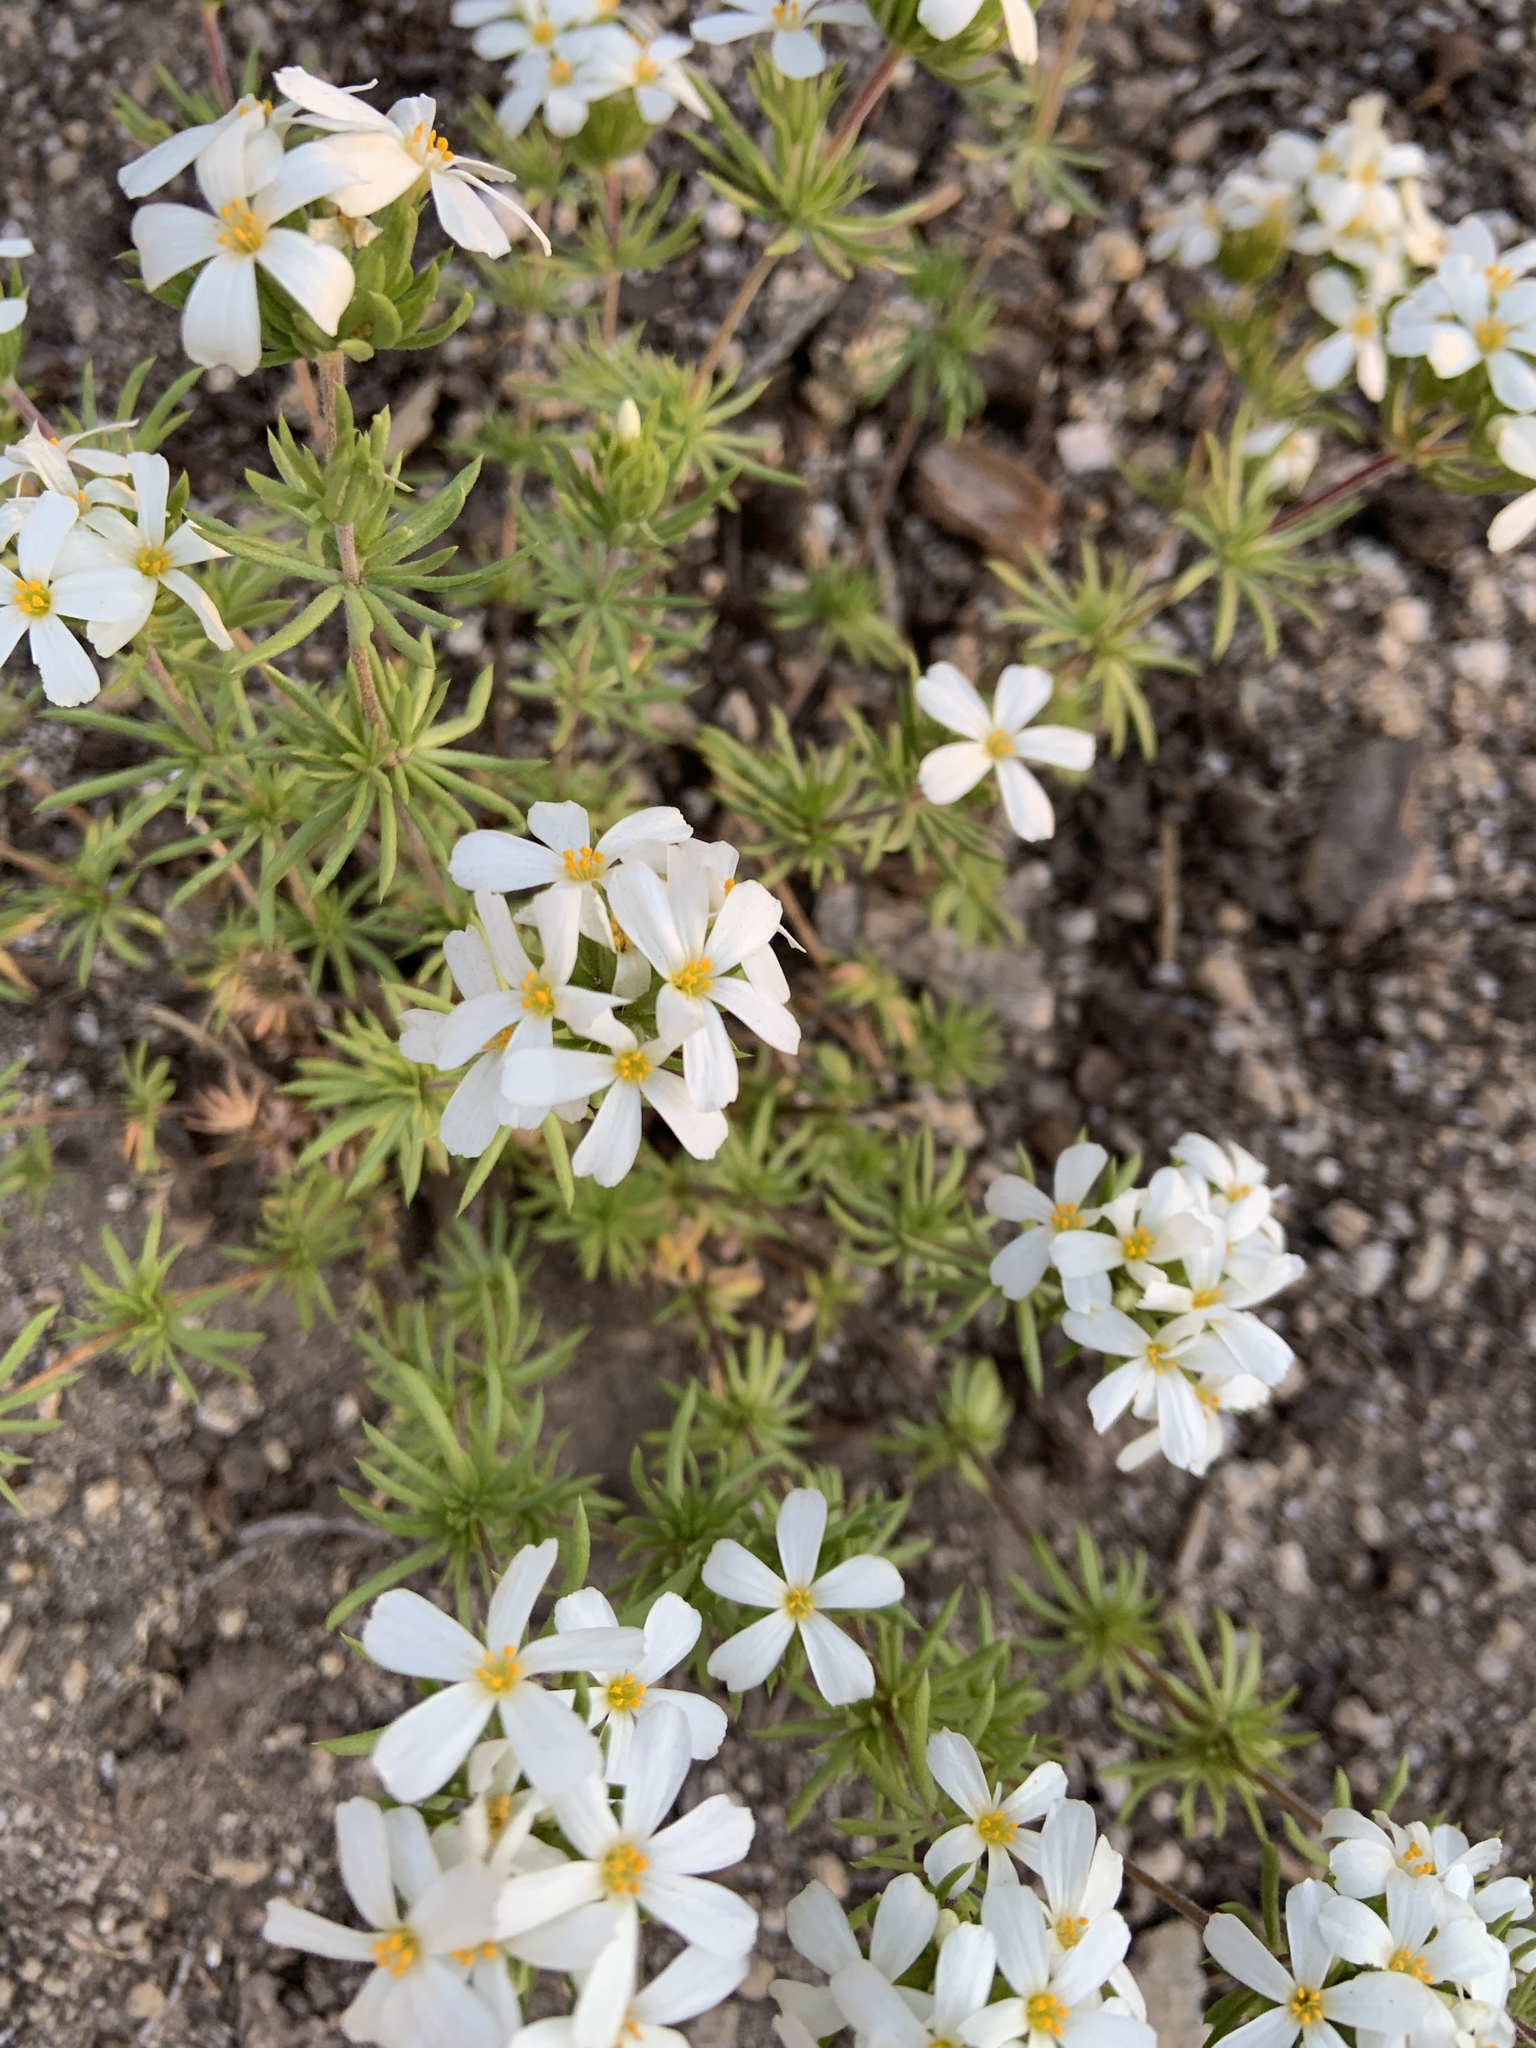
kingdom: Plantae
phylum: Tracheophyta
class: Magnoliopsida
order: Ericales
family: Polemoniaceae
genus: Leptosiphon
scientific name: Leptosiphon nuttallii
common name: Nuttall's linanthus
